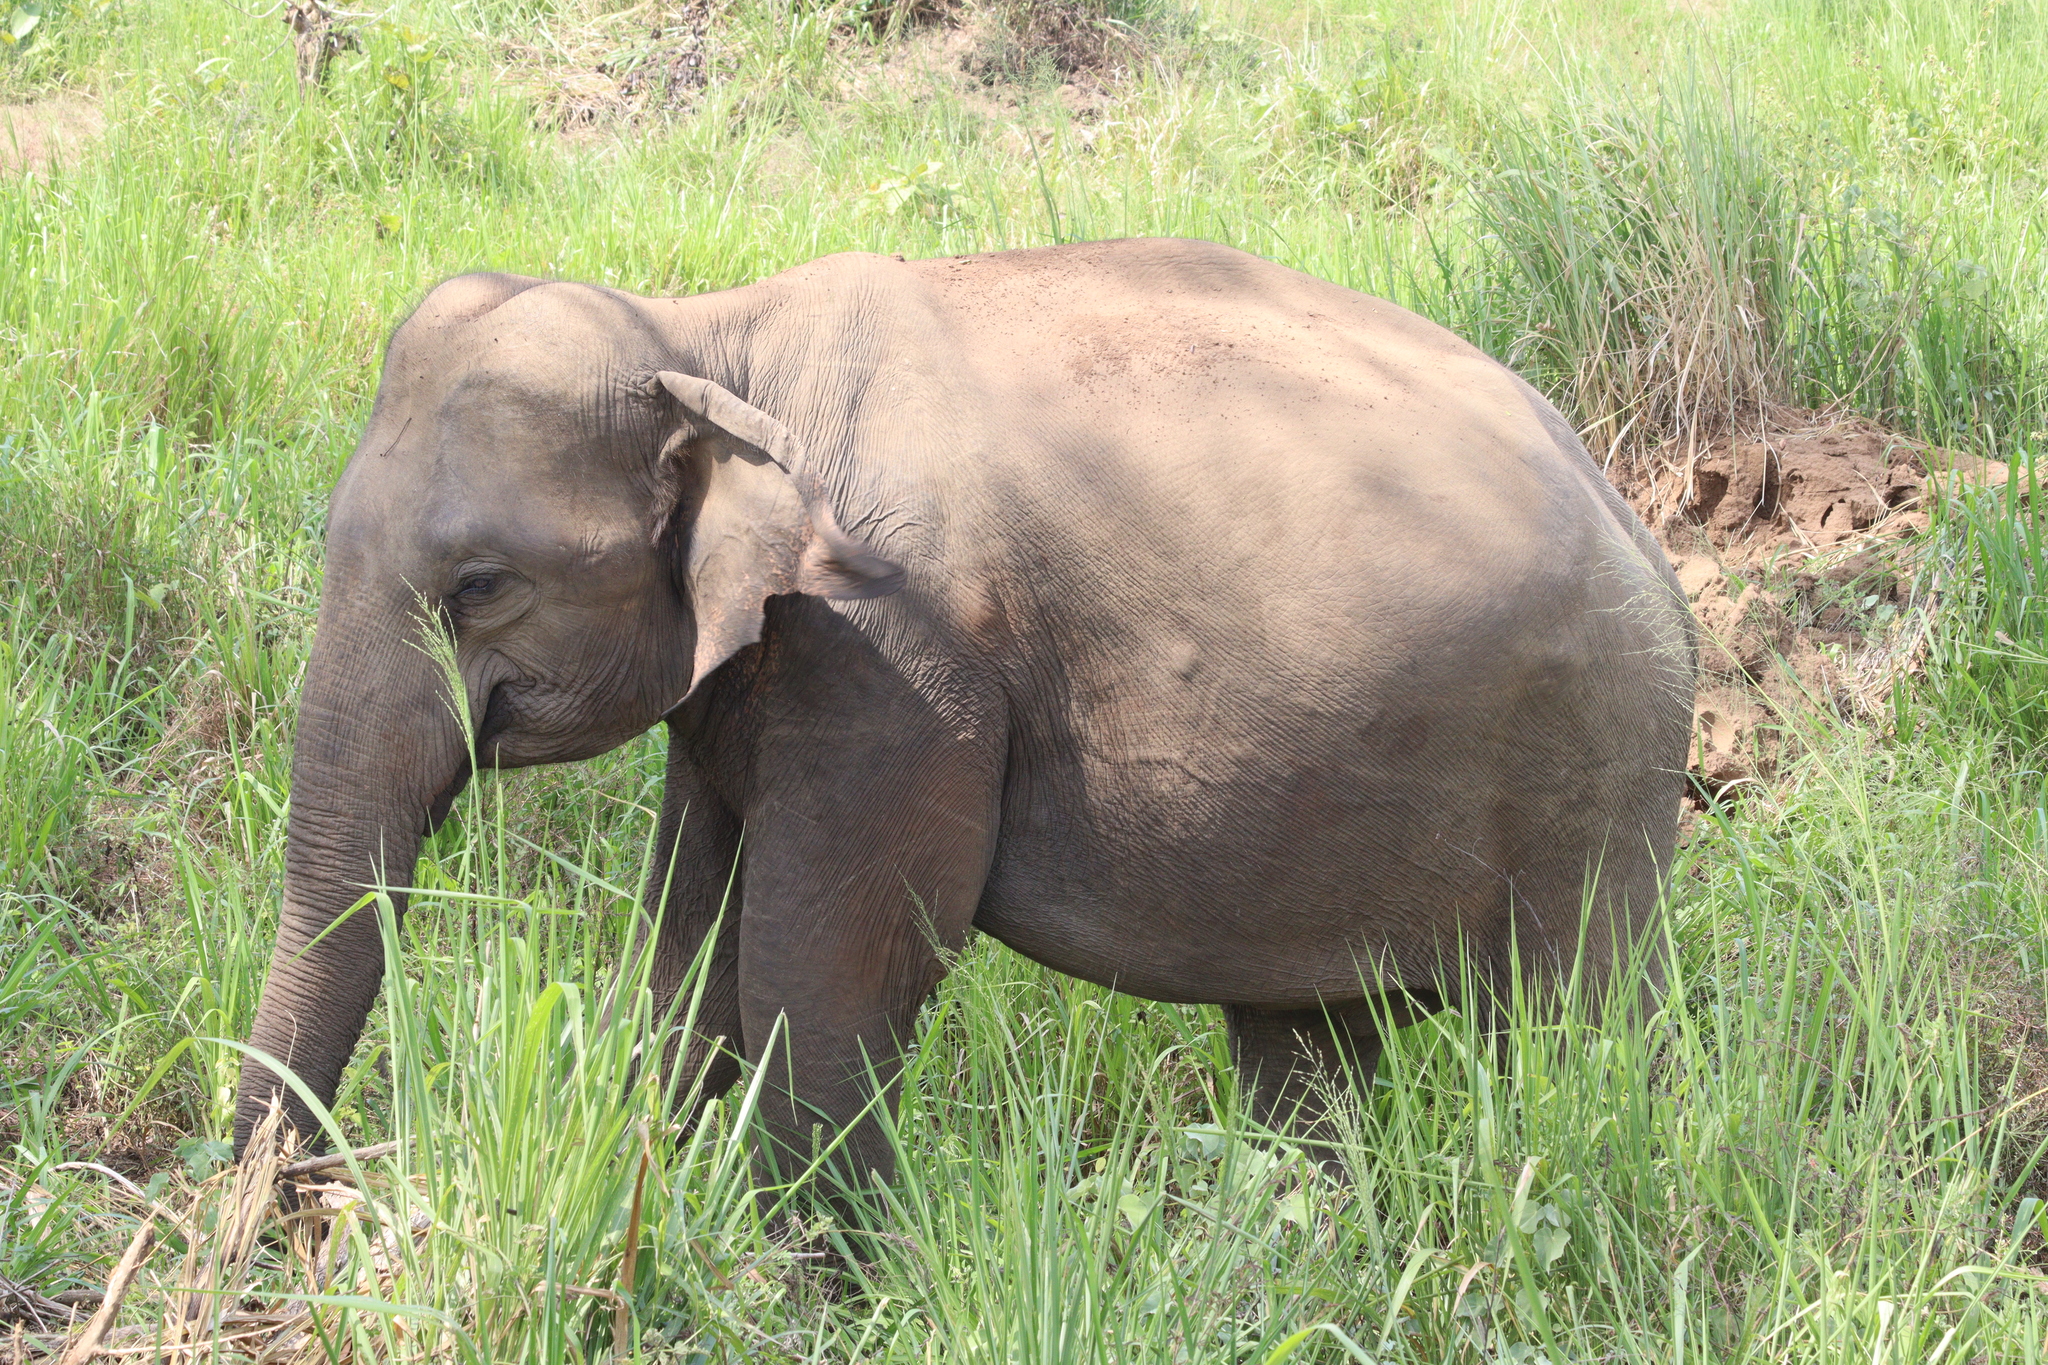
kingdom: Animalia
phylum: Chordata
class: Mammalia
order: Proboscidea
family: Elephantidae
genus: Elephas
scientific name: Elephas maximus
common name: Asian elephant
